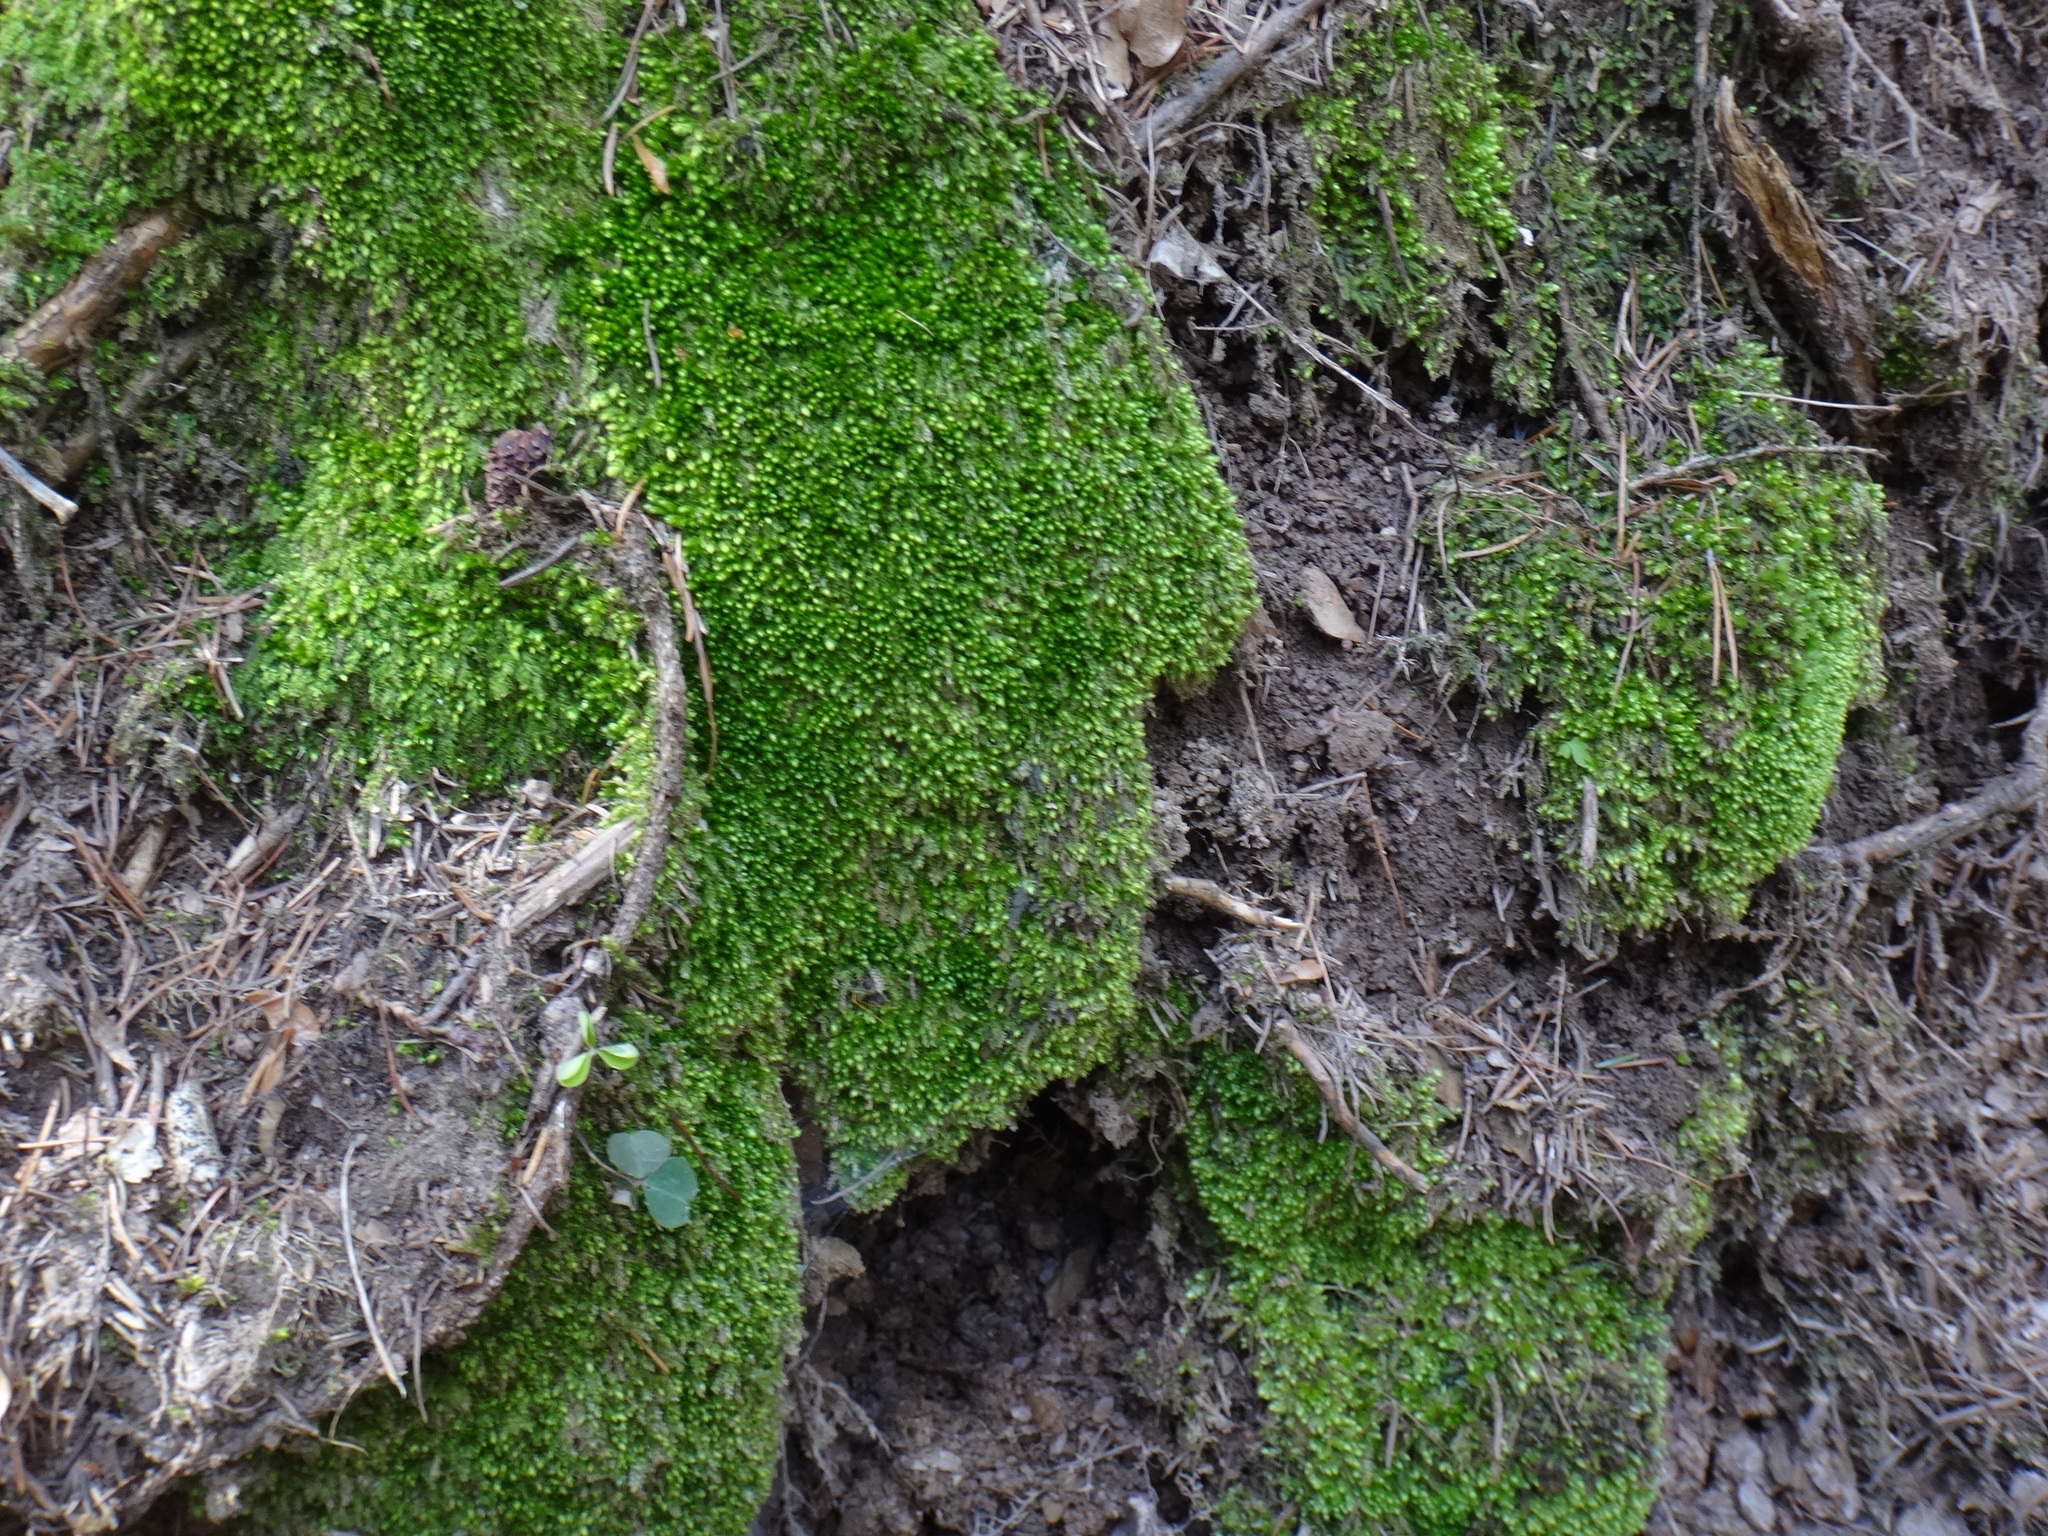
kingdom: Plantae
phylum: Bryophyta
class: Bryopsida
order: Hypnales
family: Plagiotheciaceae
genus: Plagiothecium
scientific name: Plagiothecium cavifolium
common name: Round silk moss
